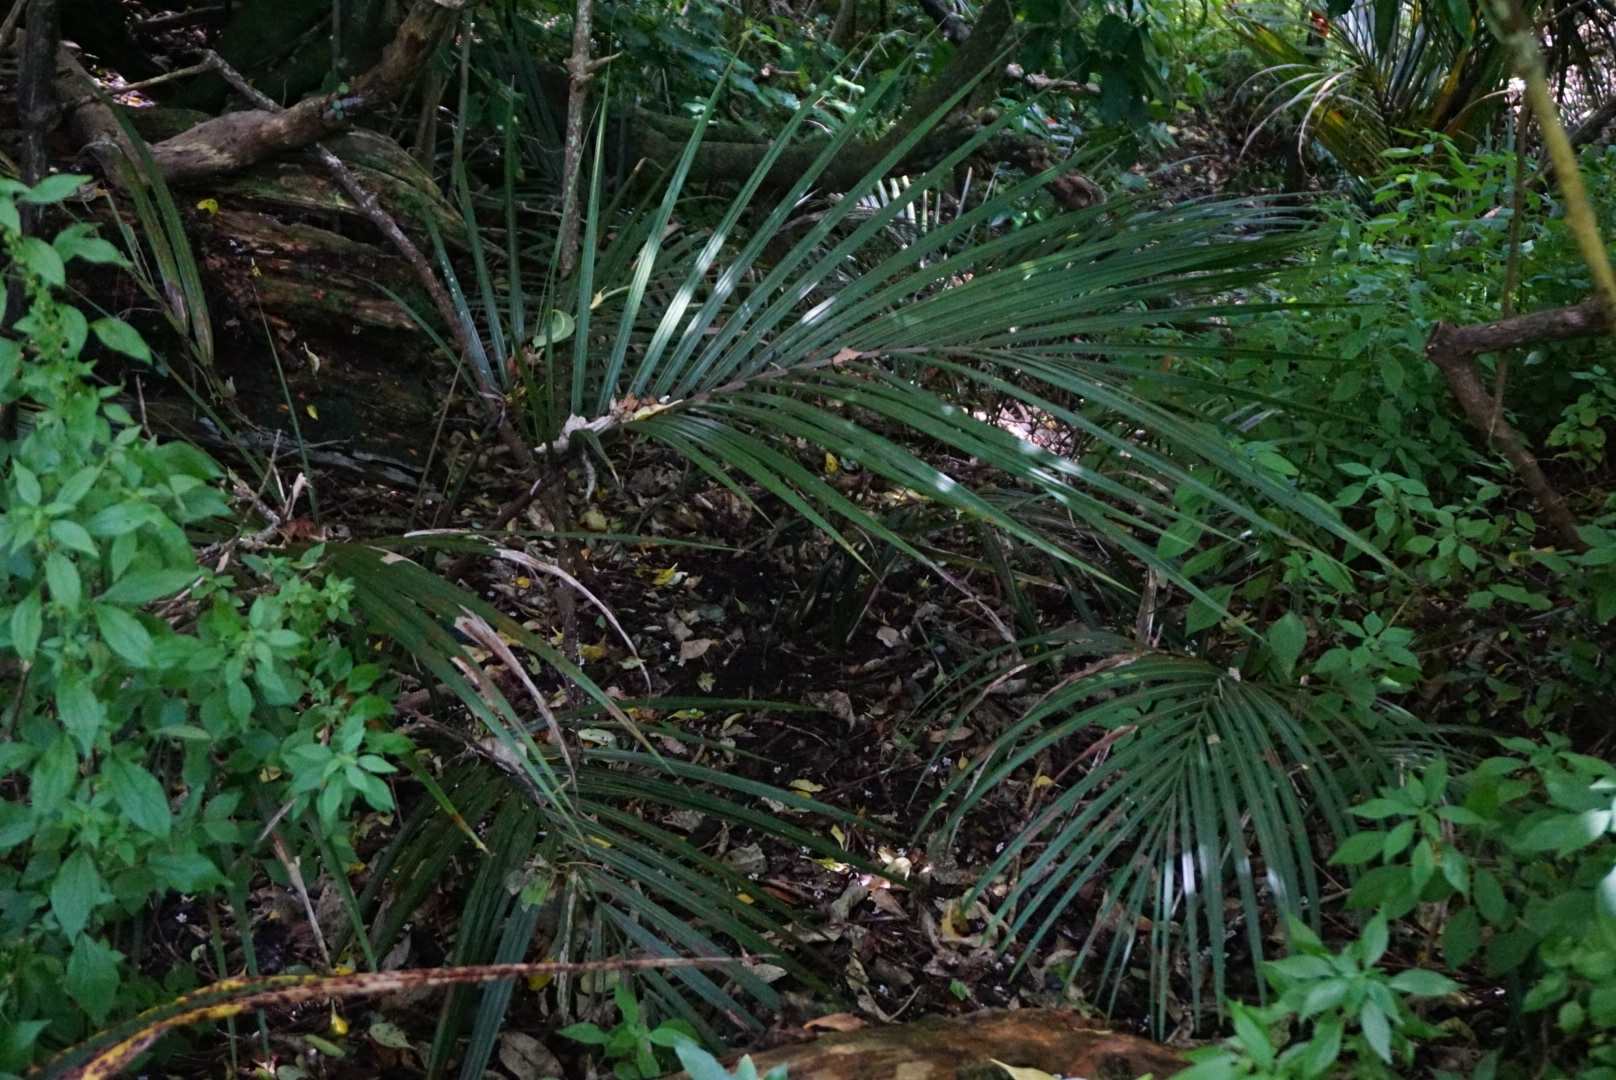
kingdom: Plantae
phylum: Tracheophyta
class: Liliopsida
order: Arecales
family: Arecaceae
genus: Rhopalostylis
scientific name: Rhopalostylis sapida
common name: Feather-duster palm
